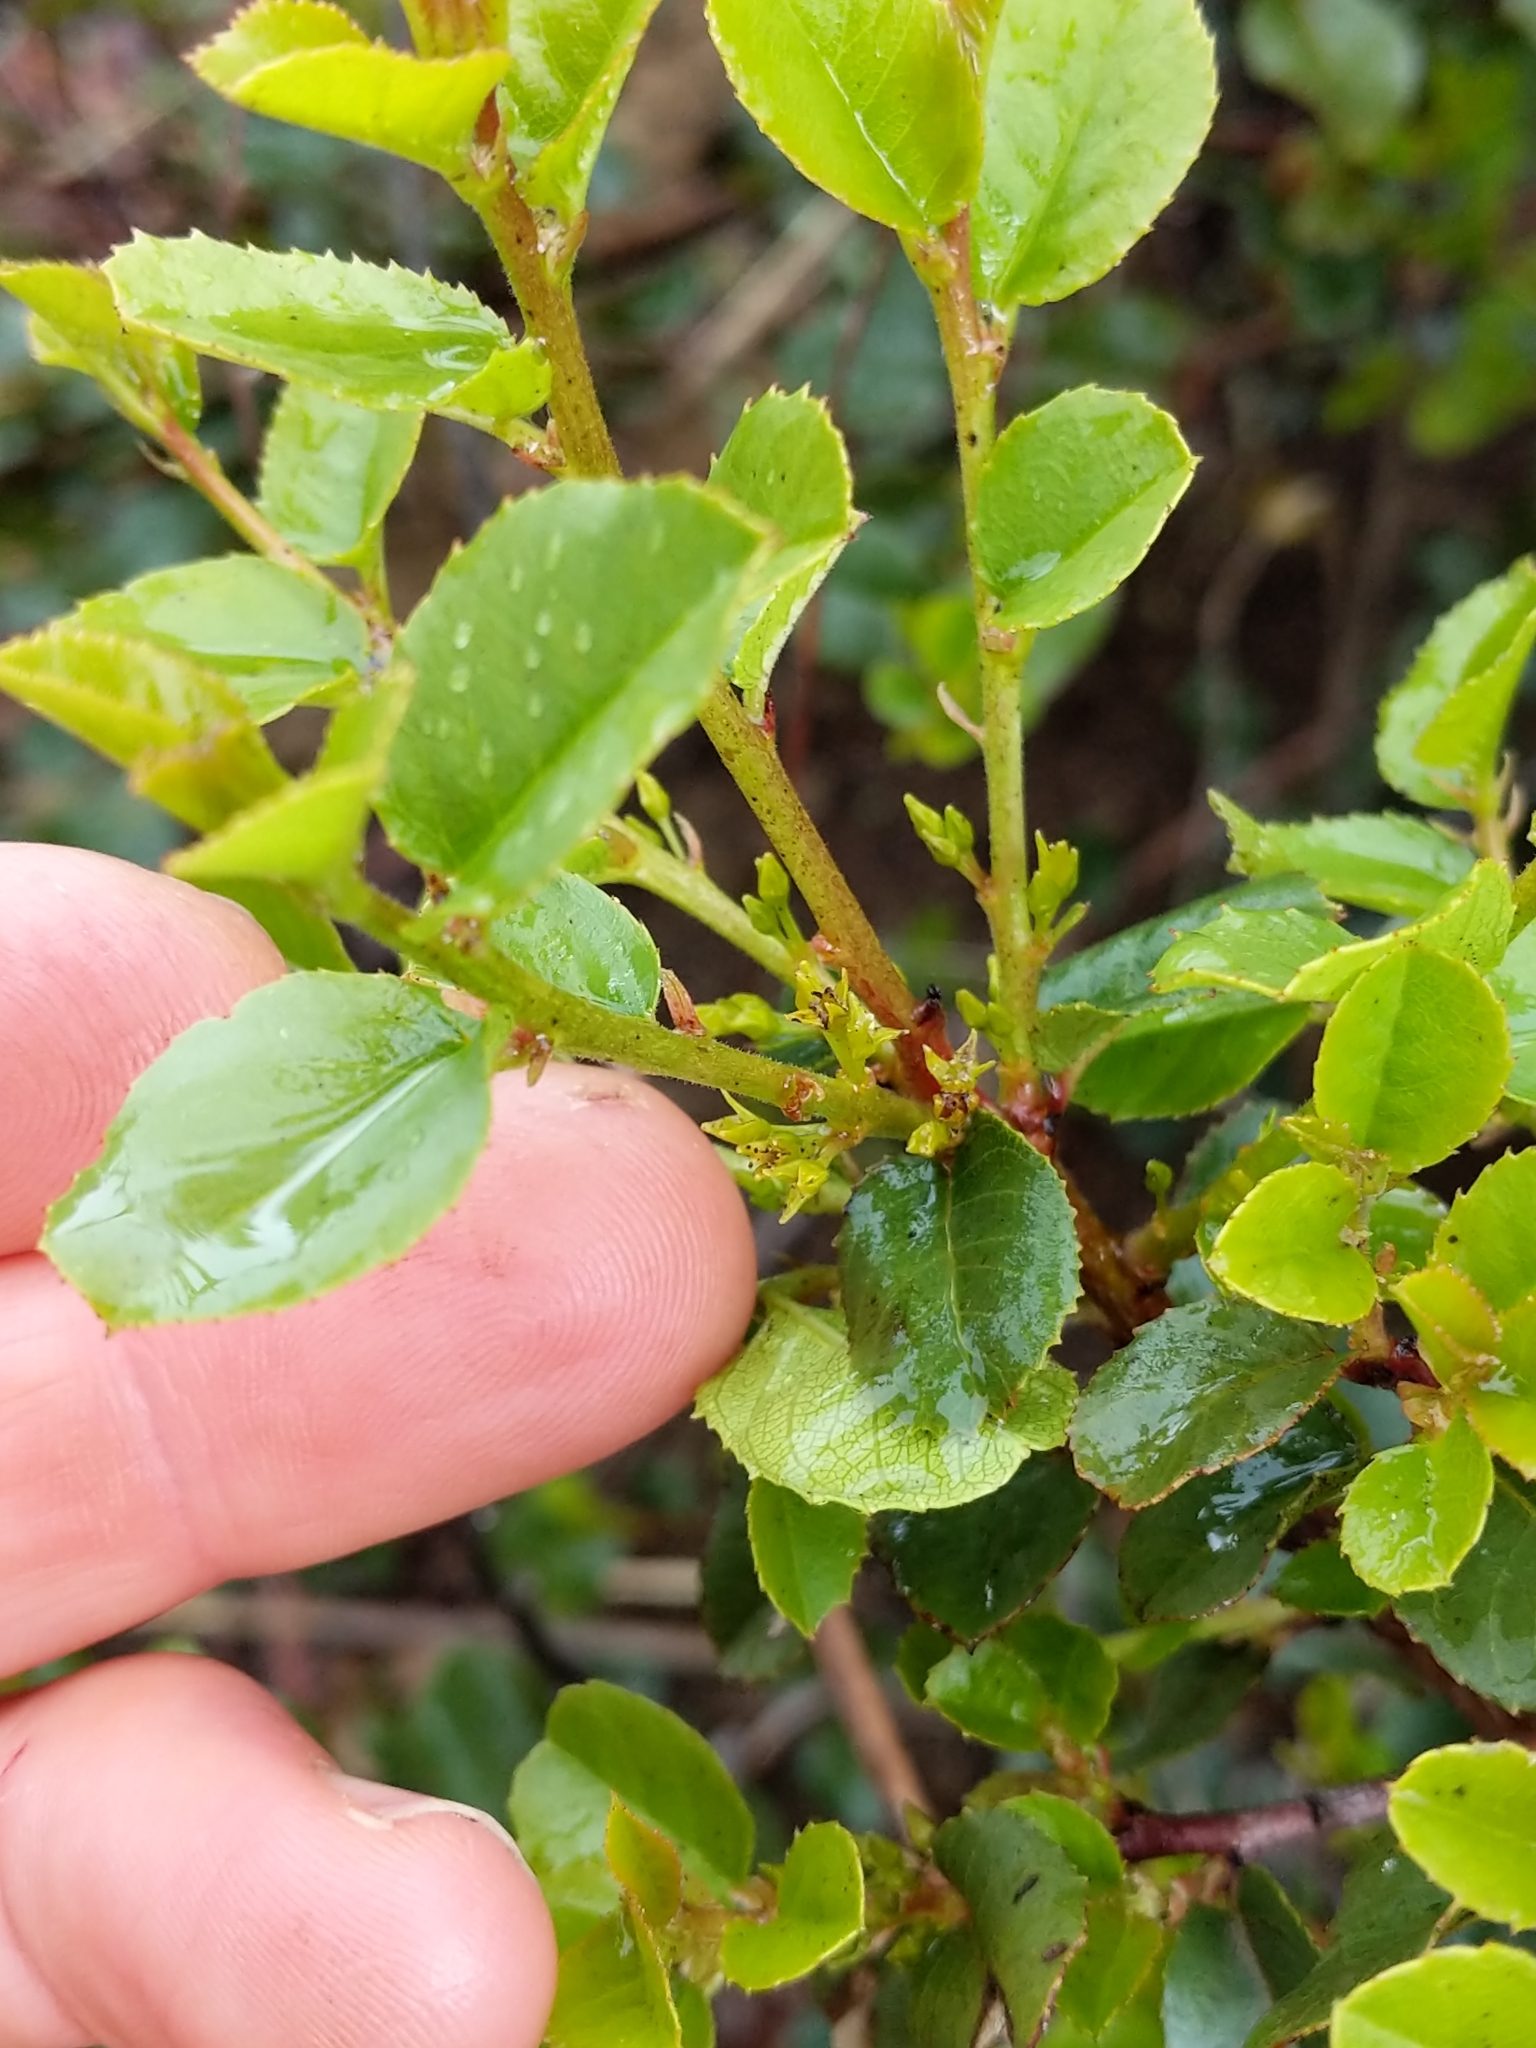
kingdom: Plantae
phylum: Tracheophyta
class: Magnoliopsida
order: Rosales
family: Rhamnaceae
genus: Endotropis
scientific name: Endotropis crocea
